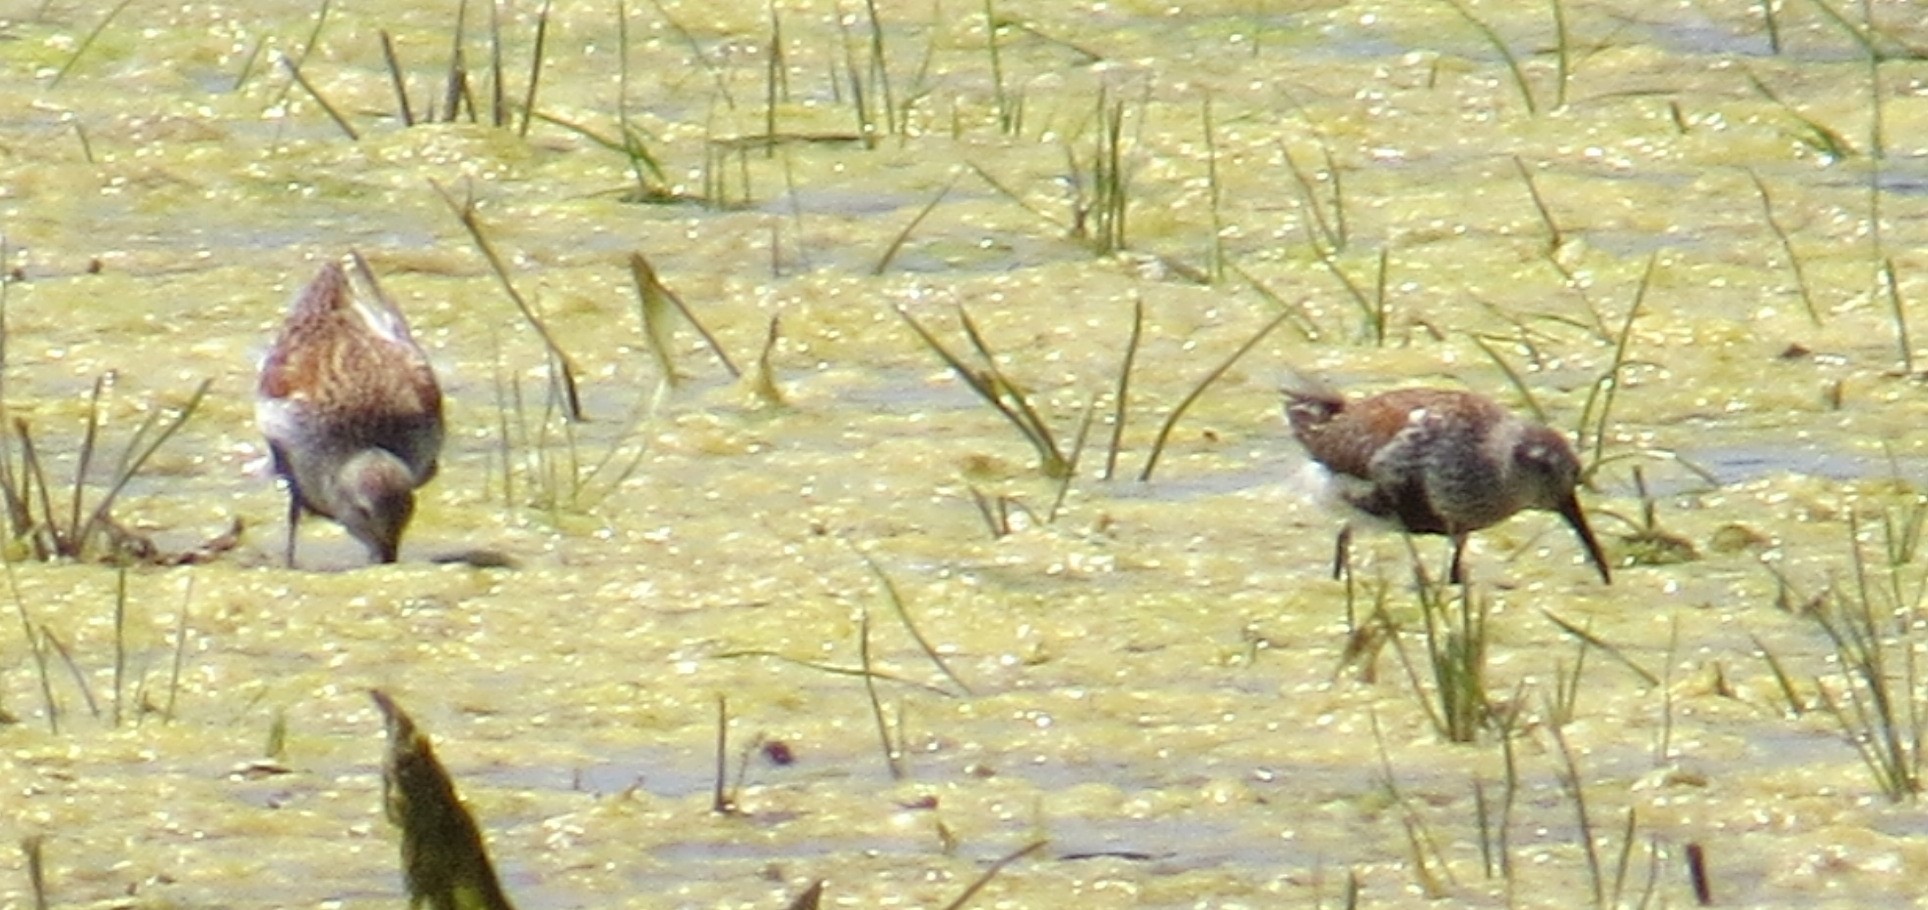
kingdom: Animalia
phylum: Chordata
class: Aves
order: Charadriiformes
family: Scolopacidae
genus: Calidris
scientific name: Calidris pugnax
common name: Ruff
